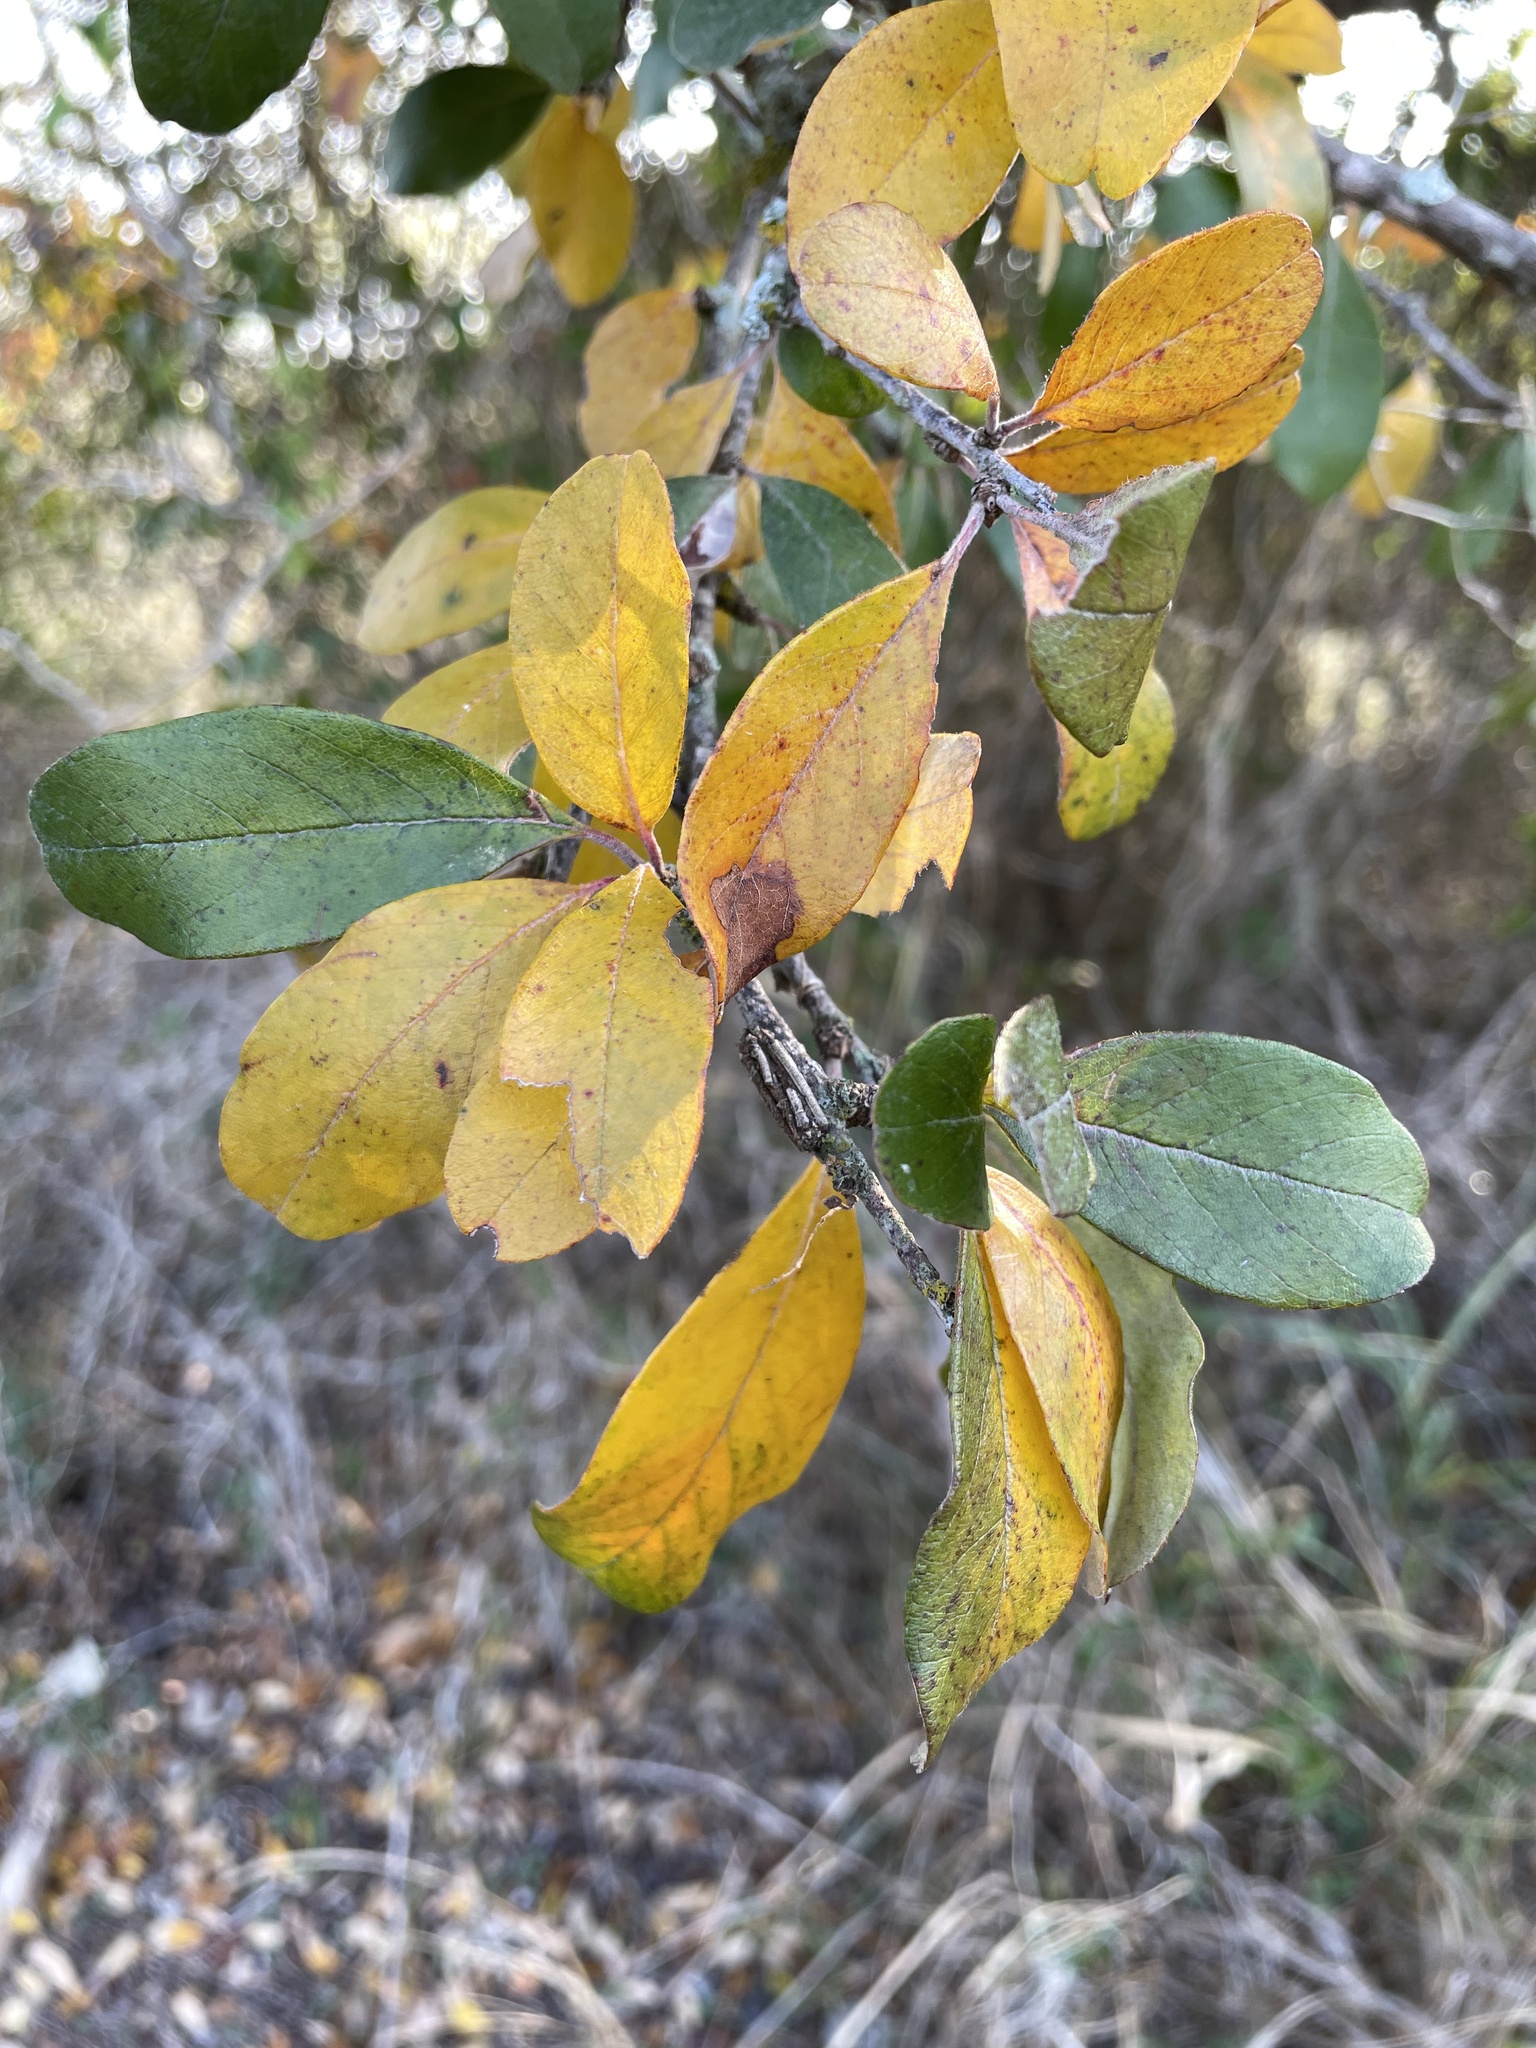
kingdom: Plantae
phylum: Tracheophyta
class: Magnoliopsida
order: Ericales
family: Sapotaceae
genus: Sideroxylon
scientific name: Sideroxylon lanuginosum
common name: Chittamwood
